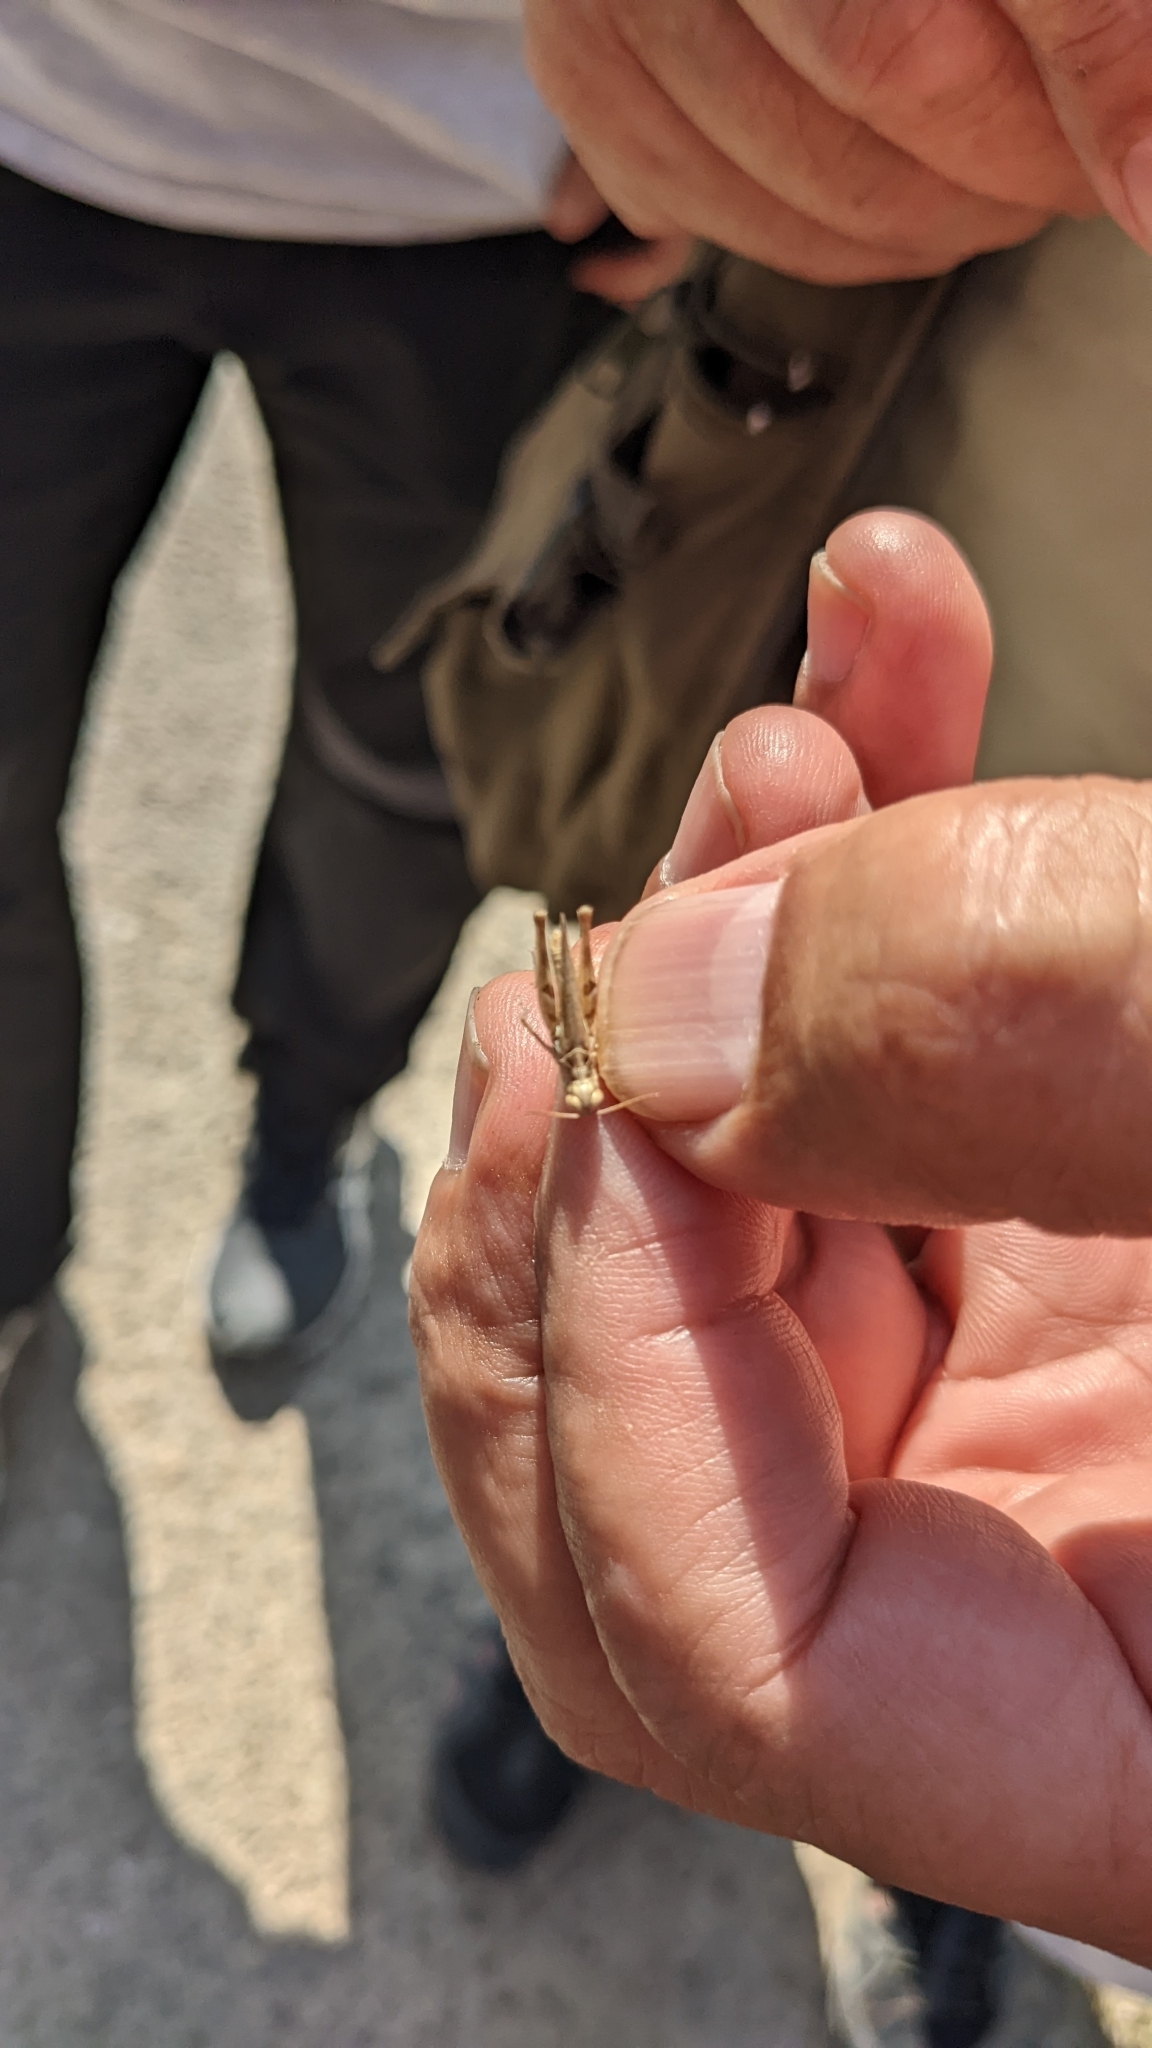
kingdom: Animalia
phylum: Arthropoda
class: Insecta
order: Orthoptera
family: Acrididae
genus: Dociostaurus
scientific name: Dociostaurus jagoi
